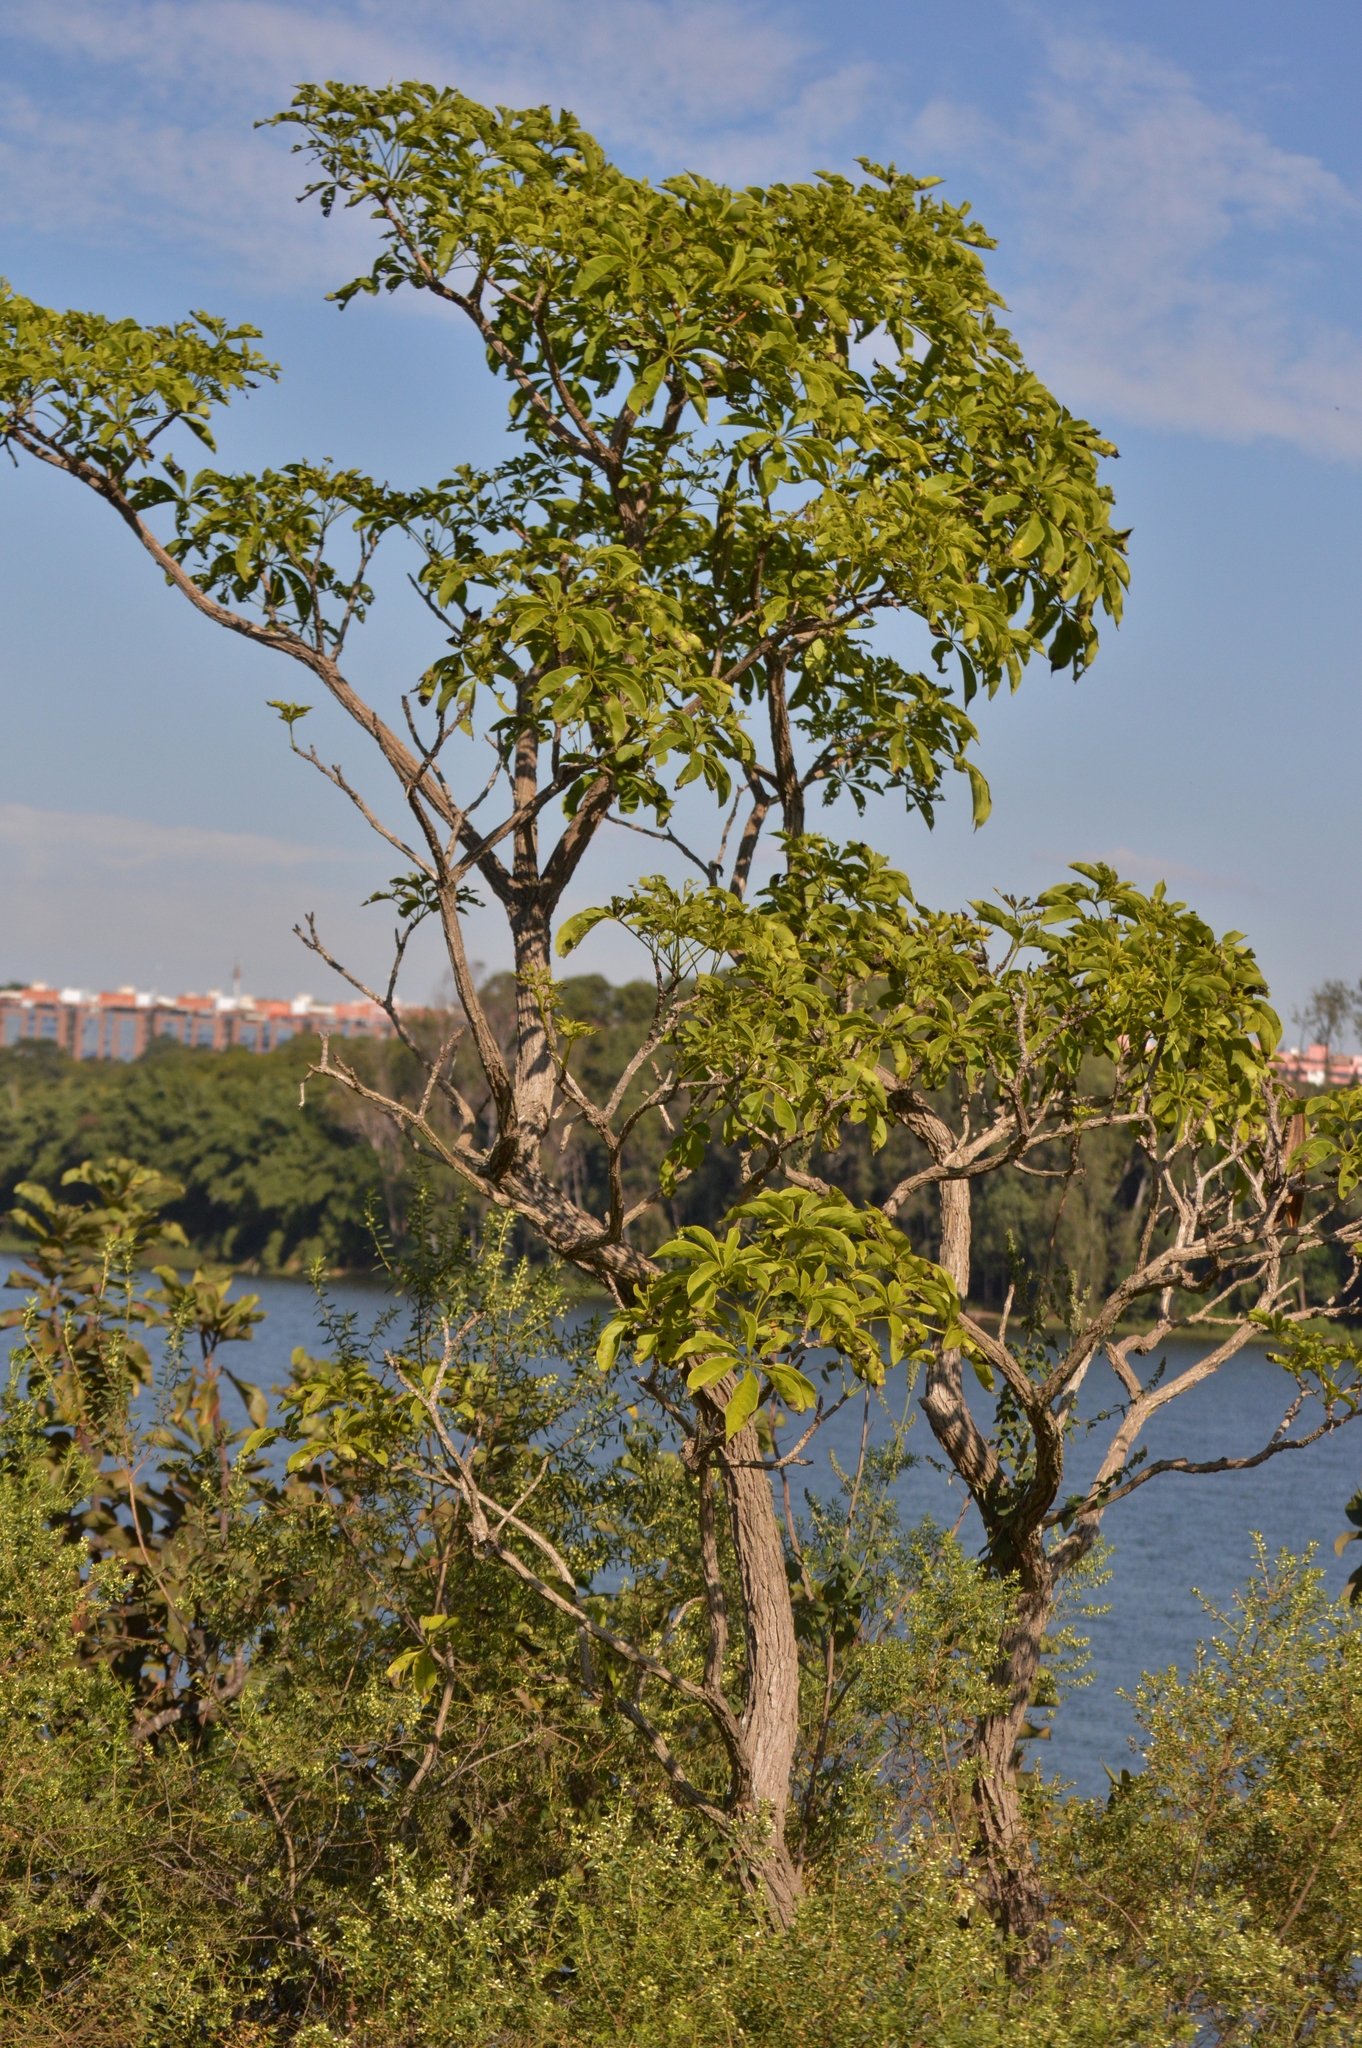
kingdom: Plantae
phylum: Tracheophyta
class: Magnoliopsida
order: Lamiales
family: Bignoniaceae
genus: Cybistax
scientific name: Cybistax antisyphilitica
